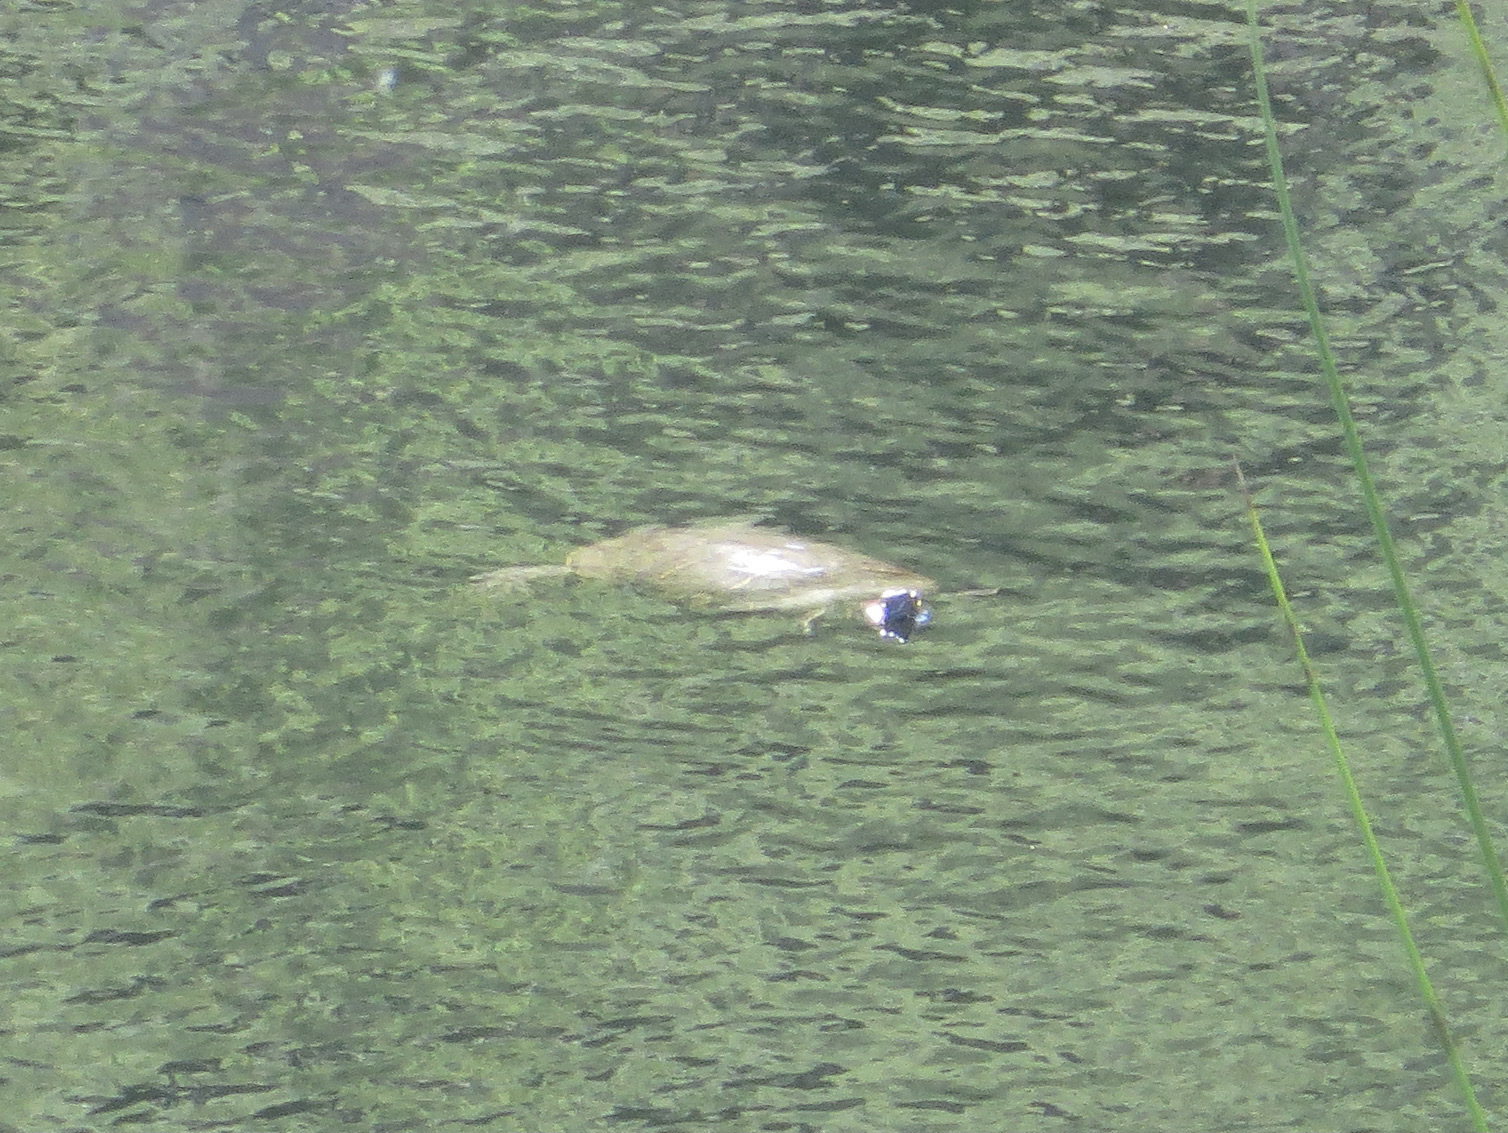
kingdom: Animalia
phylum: Chordata
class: Testudines
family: Emydidae
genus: Trachemys
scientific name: Trachemys scripta
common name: Slider
